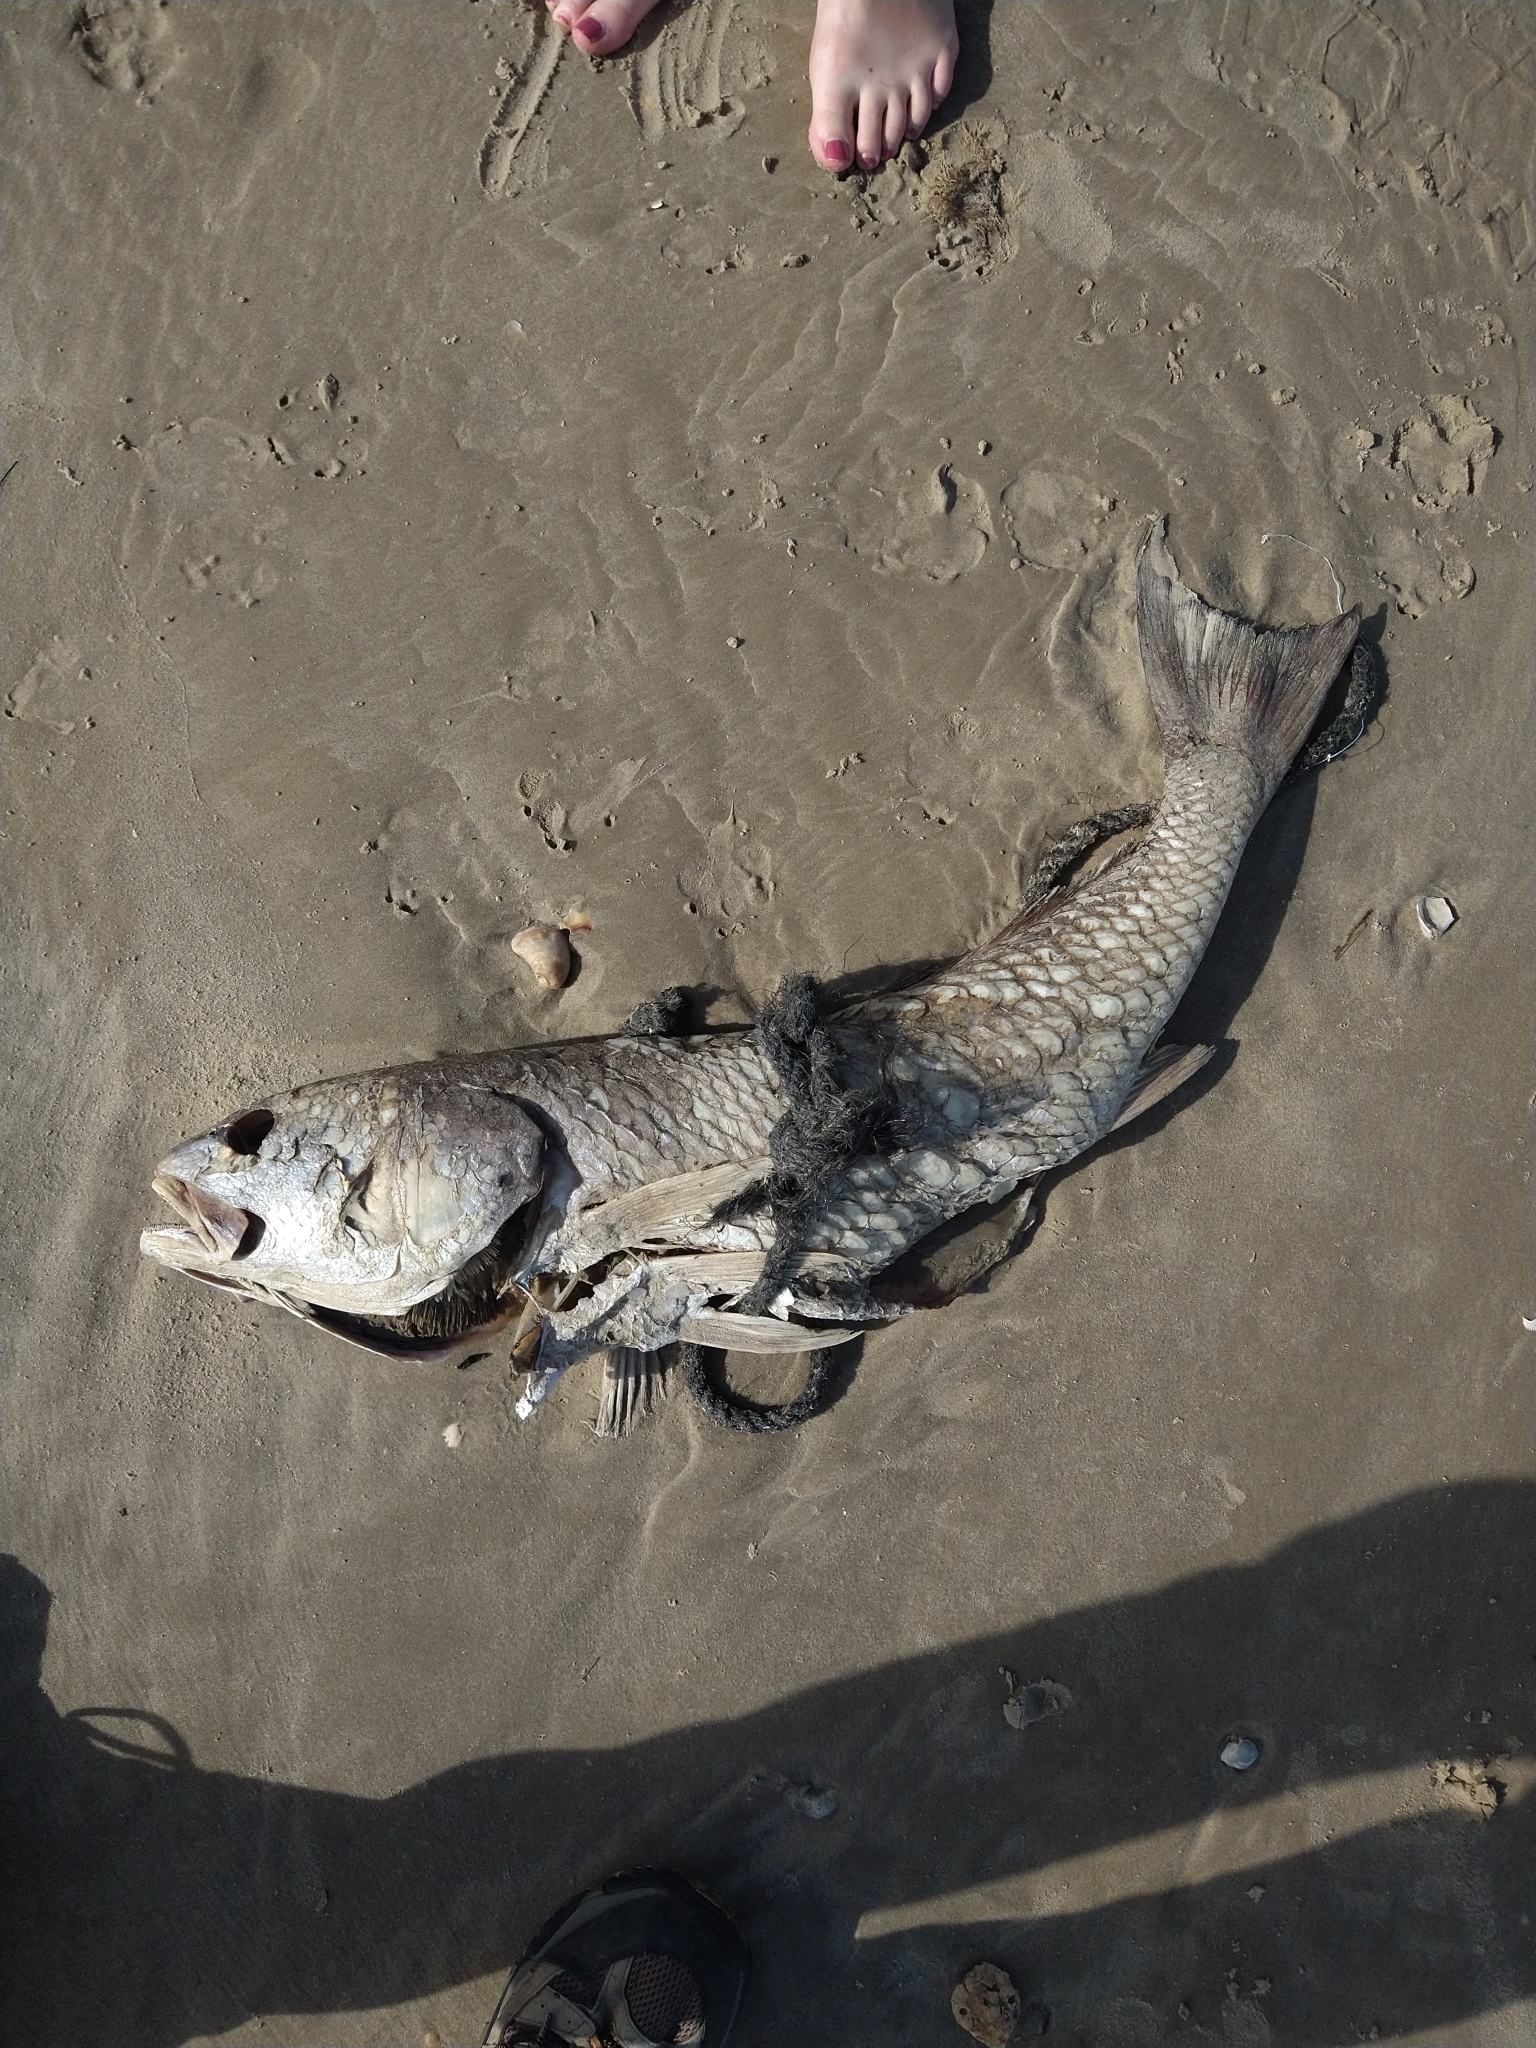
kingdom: Animalia
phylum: Chordata
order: Perciformes
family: Sciaenidae
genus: Sciaenops
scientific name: Sciaenops ocellatus
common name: Red drum
